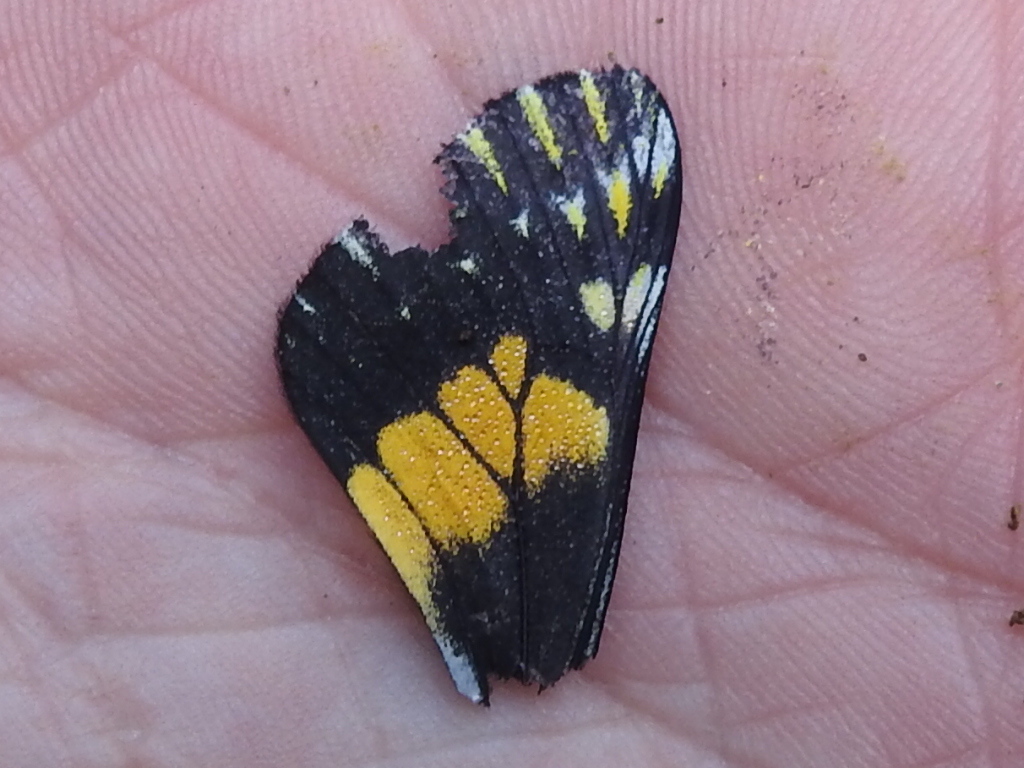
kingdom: Animalia
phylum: Arthropoda
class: Insecta
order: Lepidoptera
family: Pieridae
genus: Archonias
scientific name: Archonias teutila
